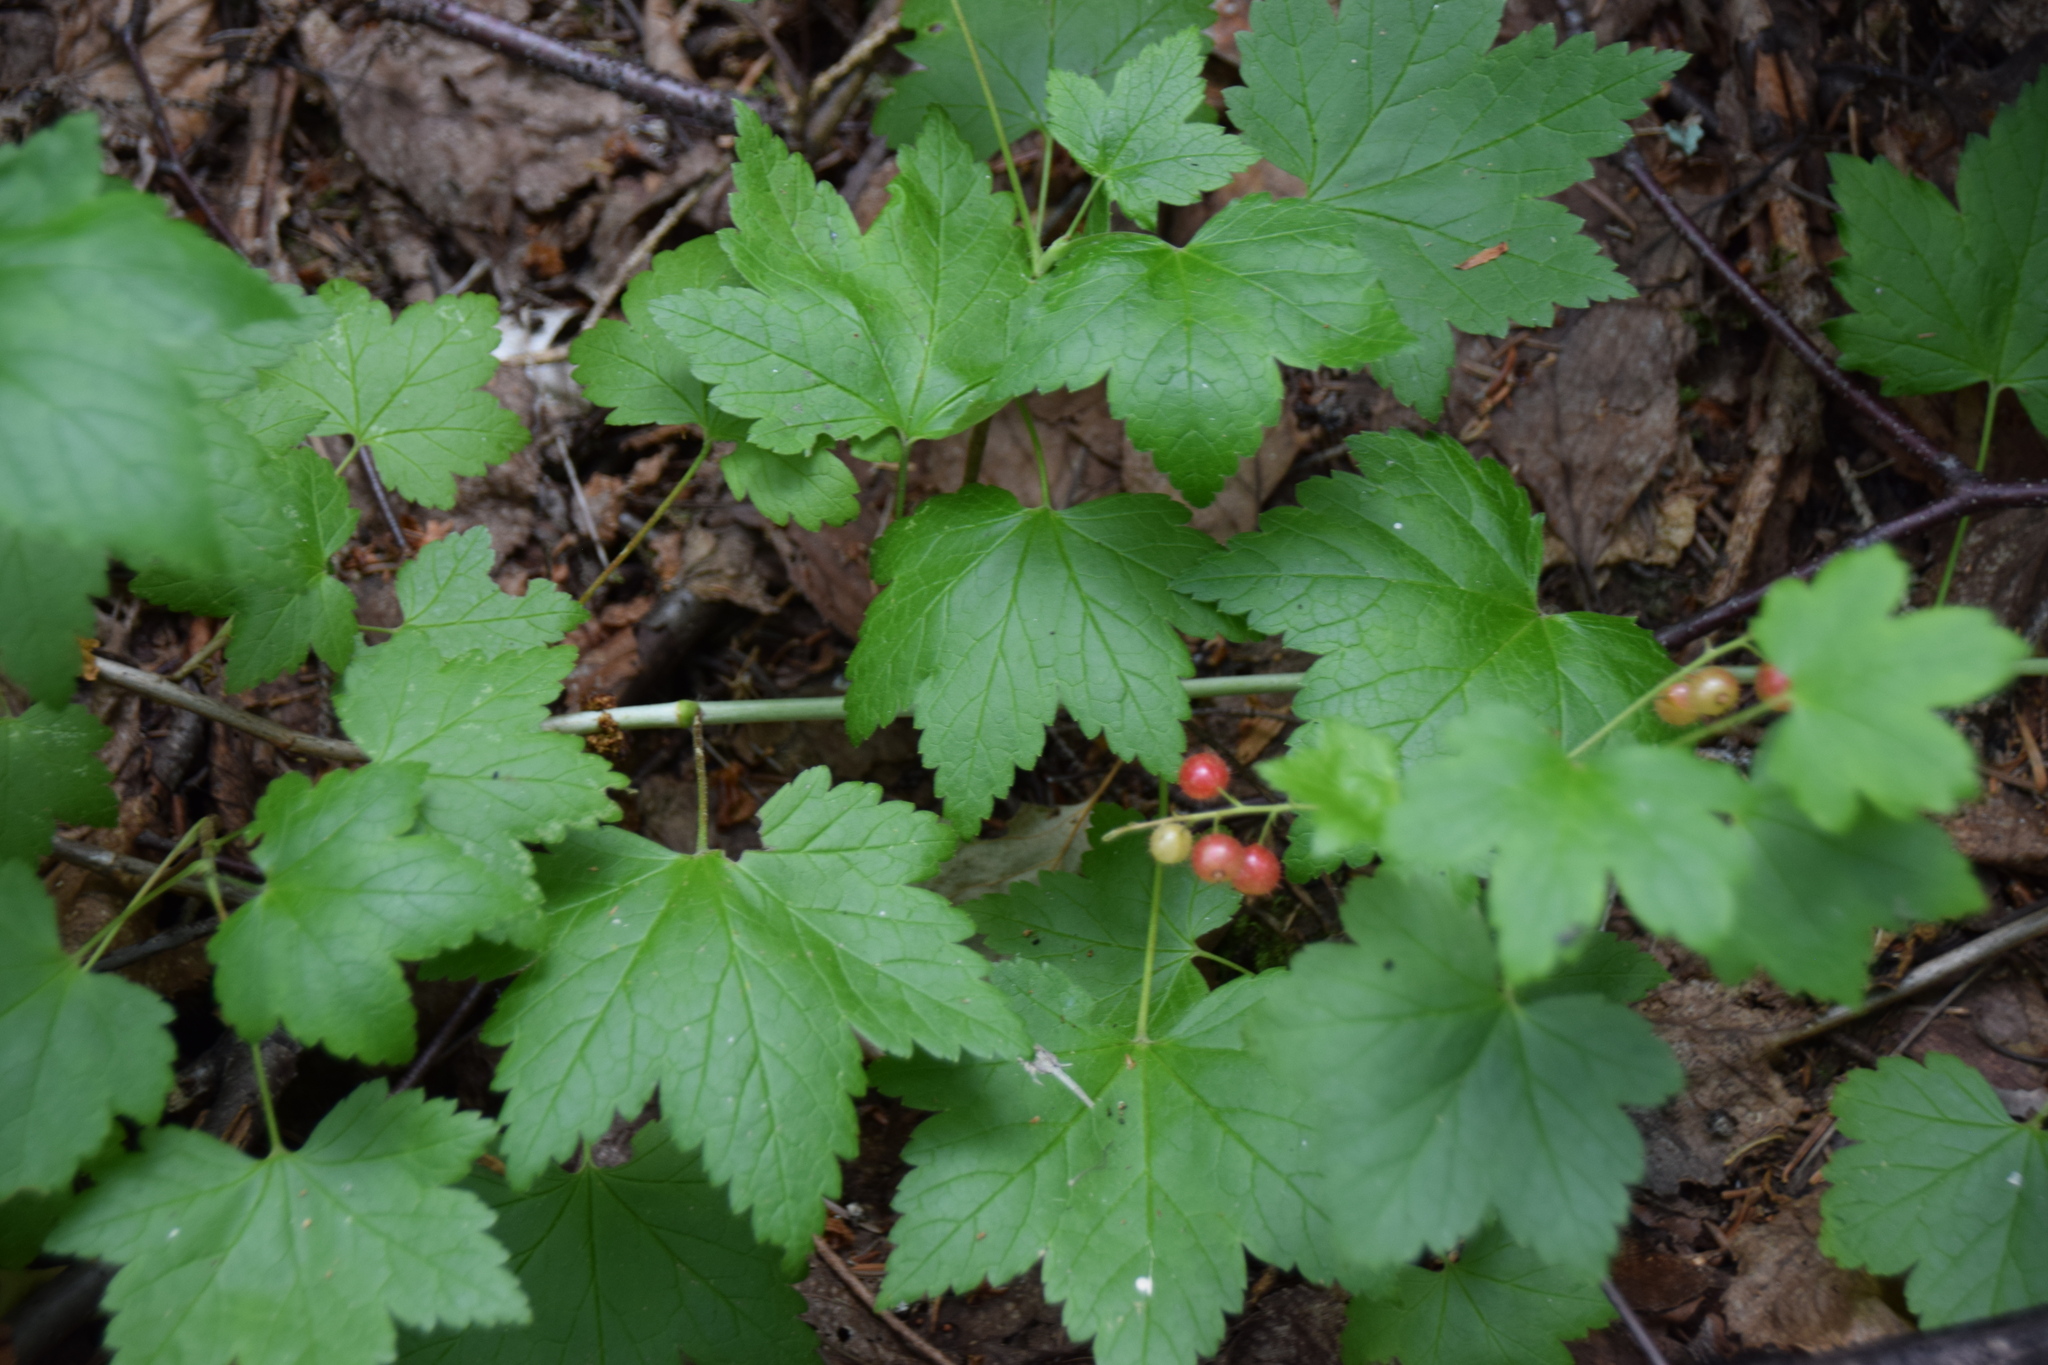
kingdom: Plantae
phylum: Tracheophyta
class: Magnoliopsida
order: Saxifragales
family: Grossulariaceae
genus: Ribes
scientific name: Ribes glandulosum
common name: Skunk currant
